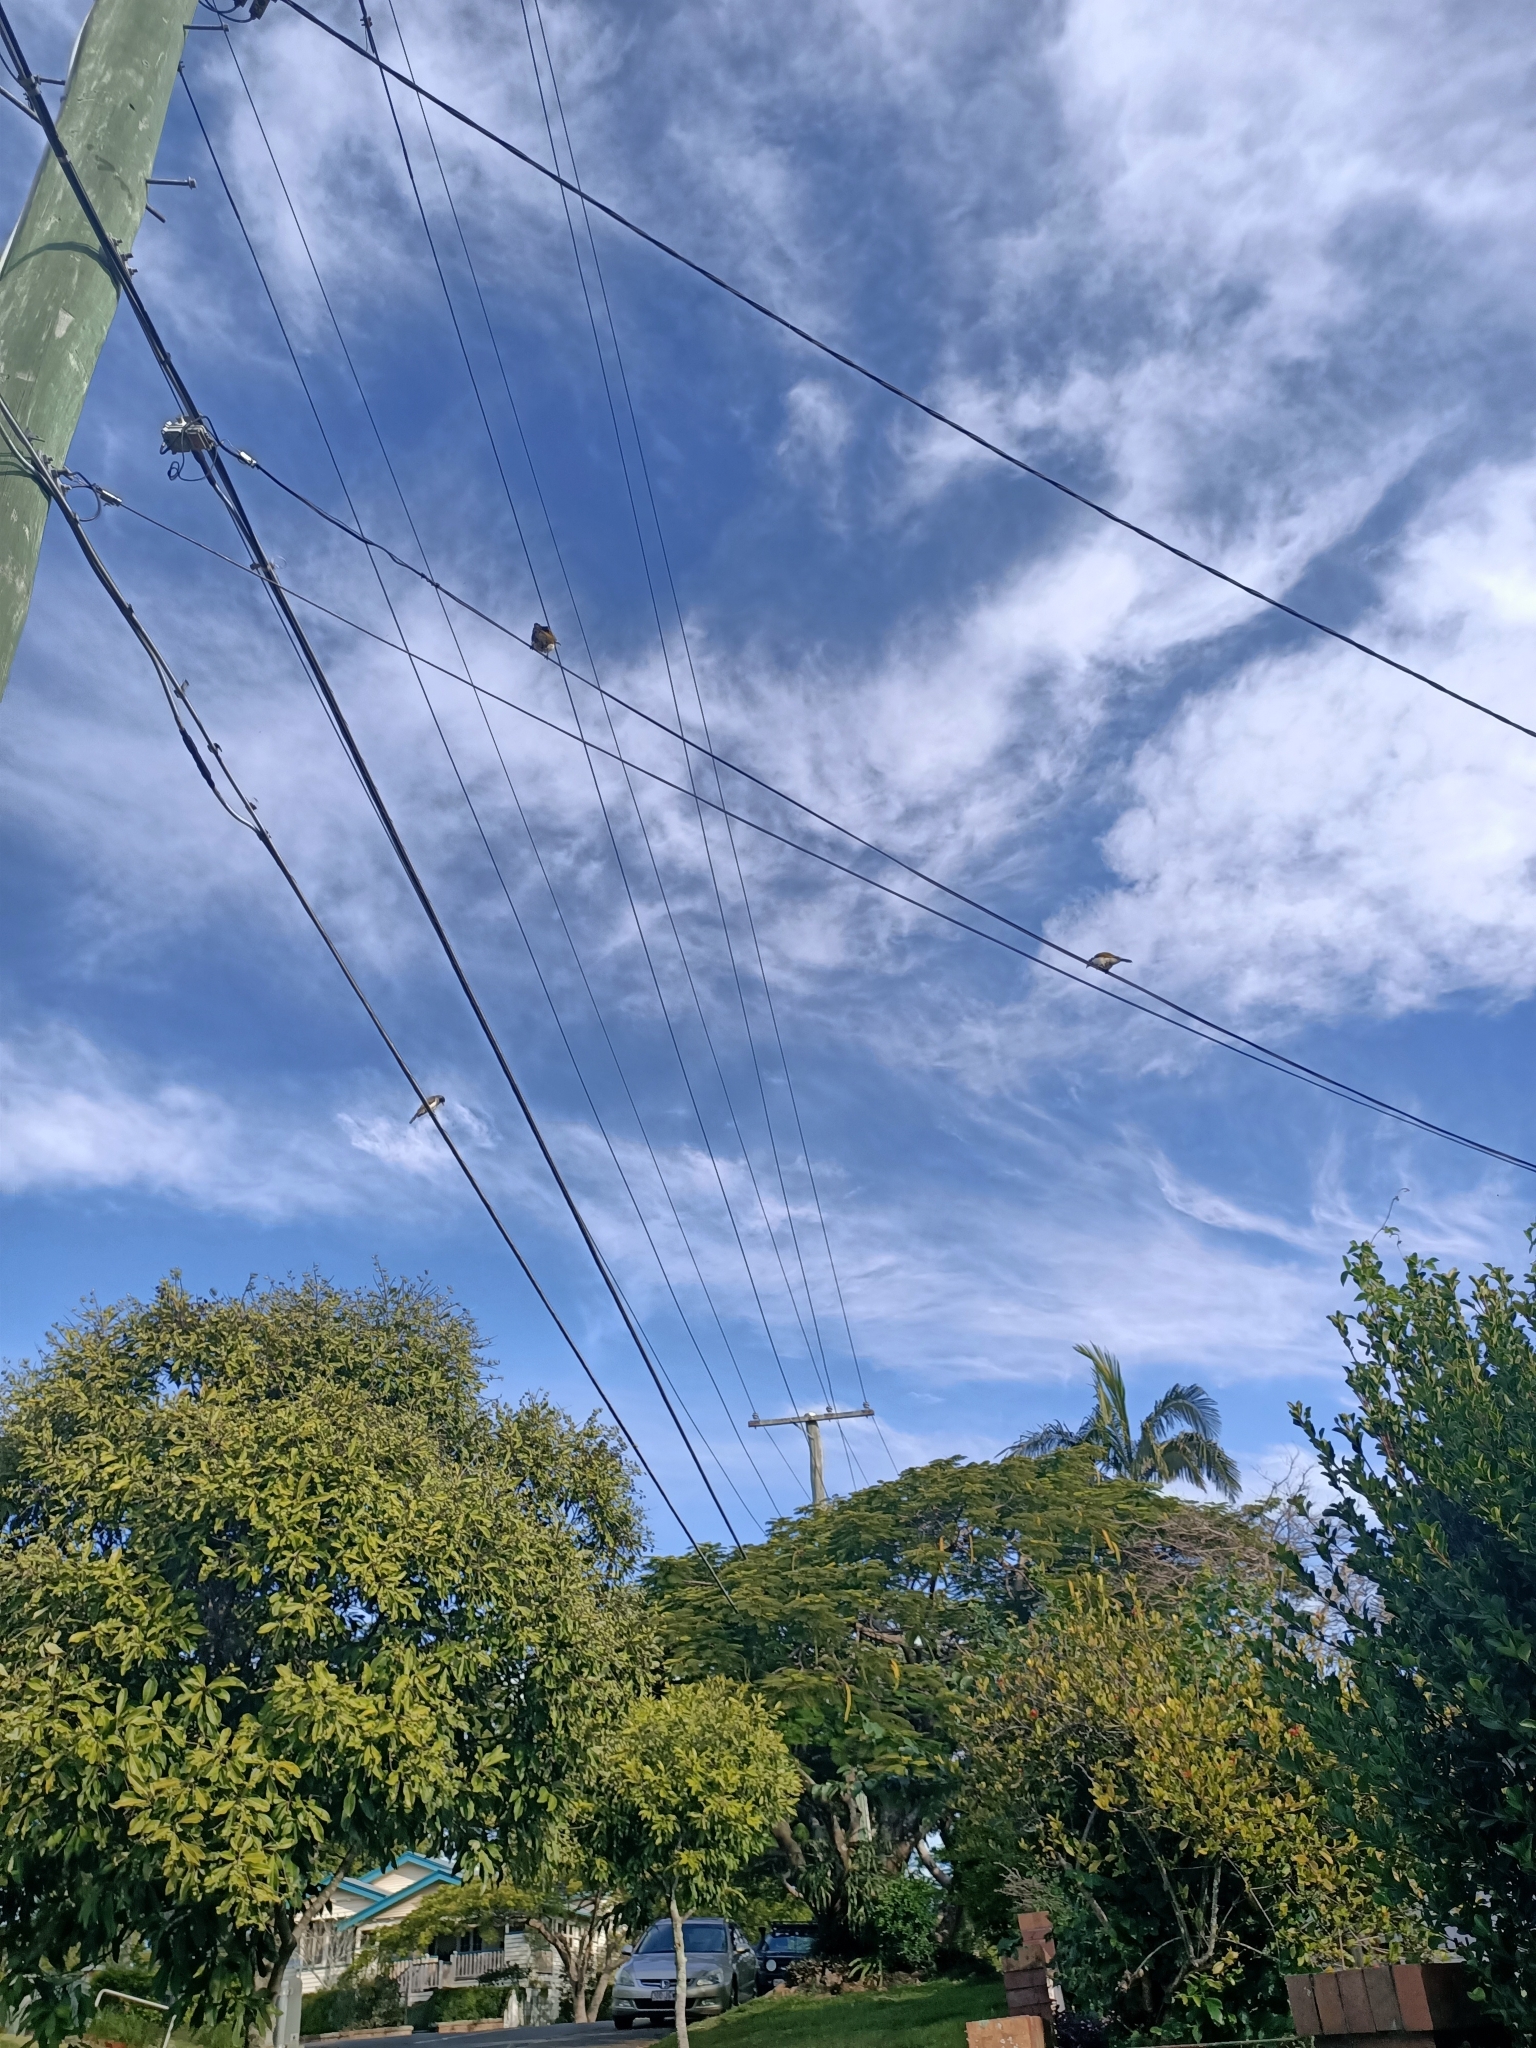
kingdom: Animalia
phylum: Chordata
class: Aves
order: Passeriformes
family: Meliphagidae
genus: Entomyzon
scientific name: Entomyzon cyanotis
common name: Blue-faced honeyeater
